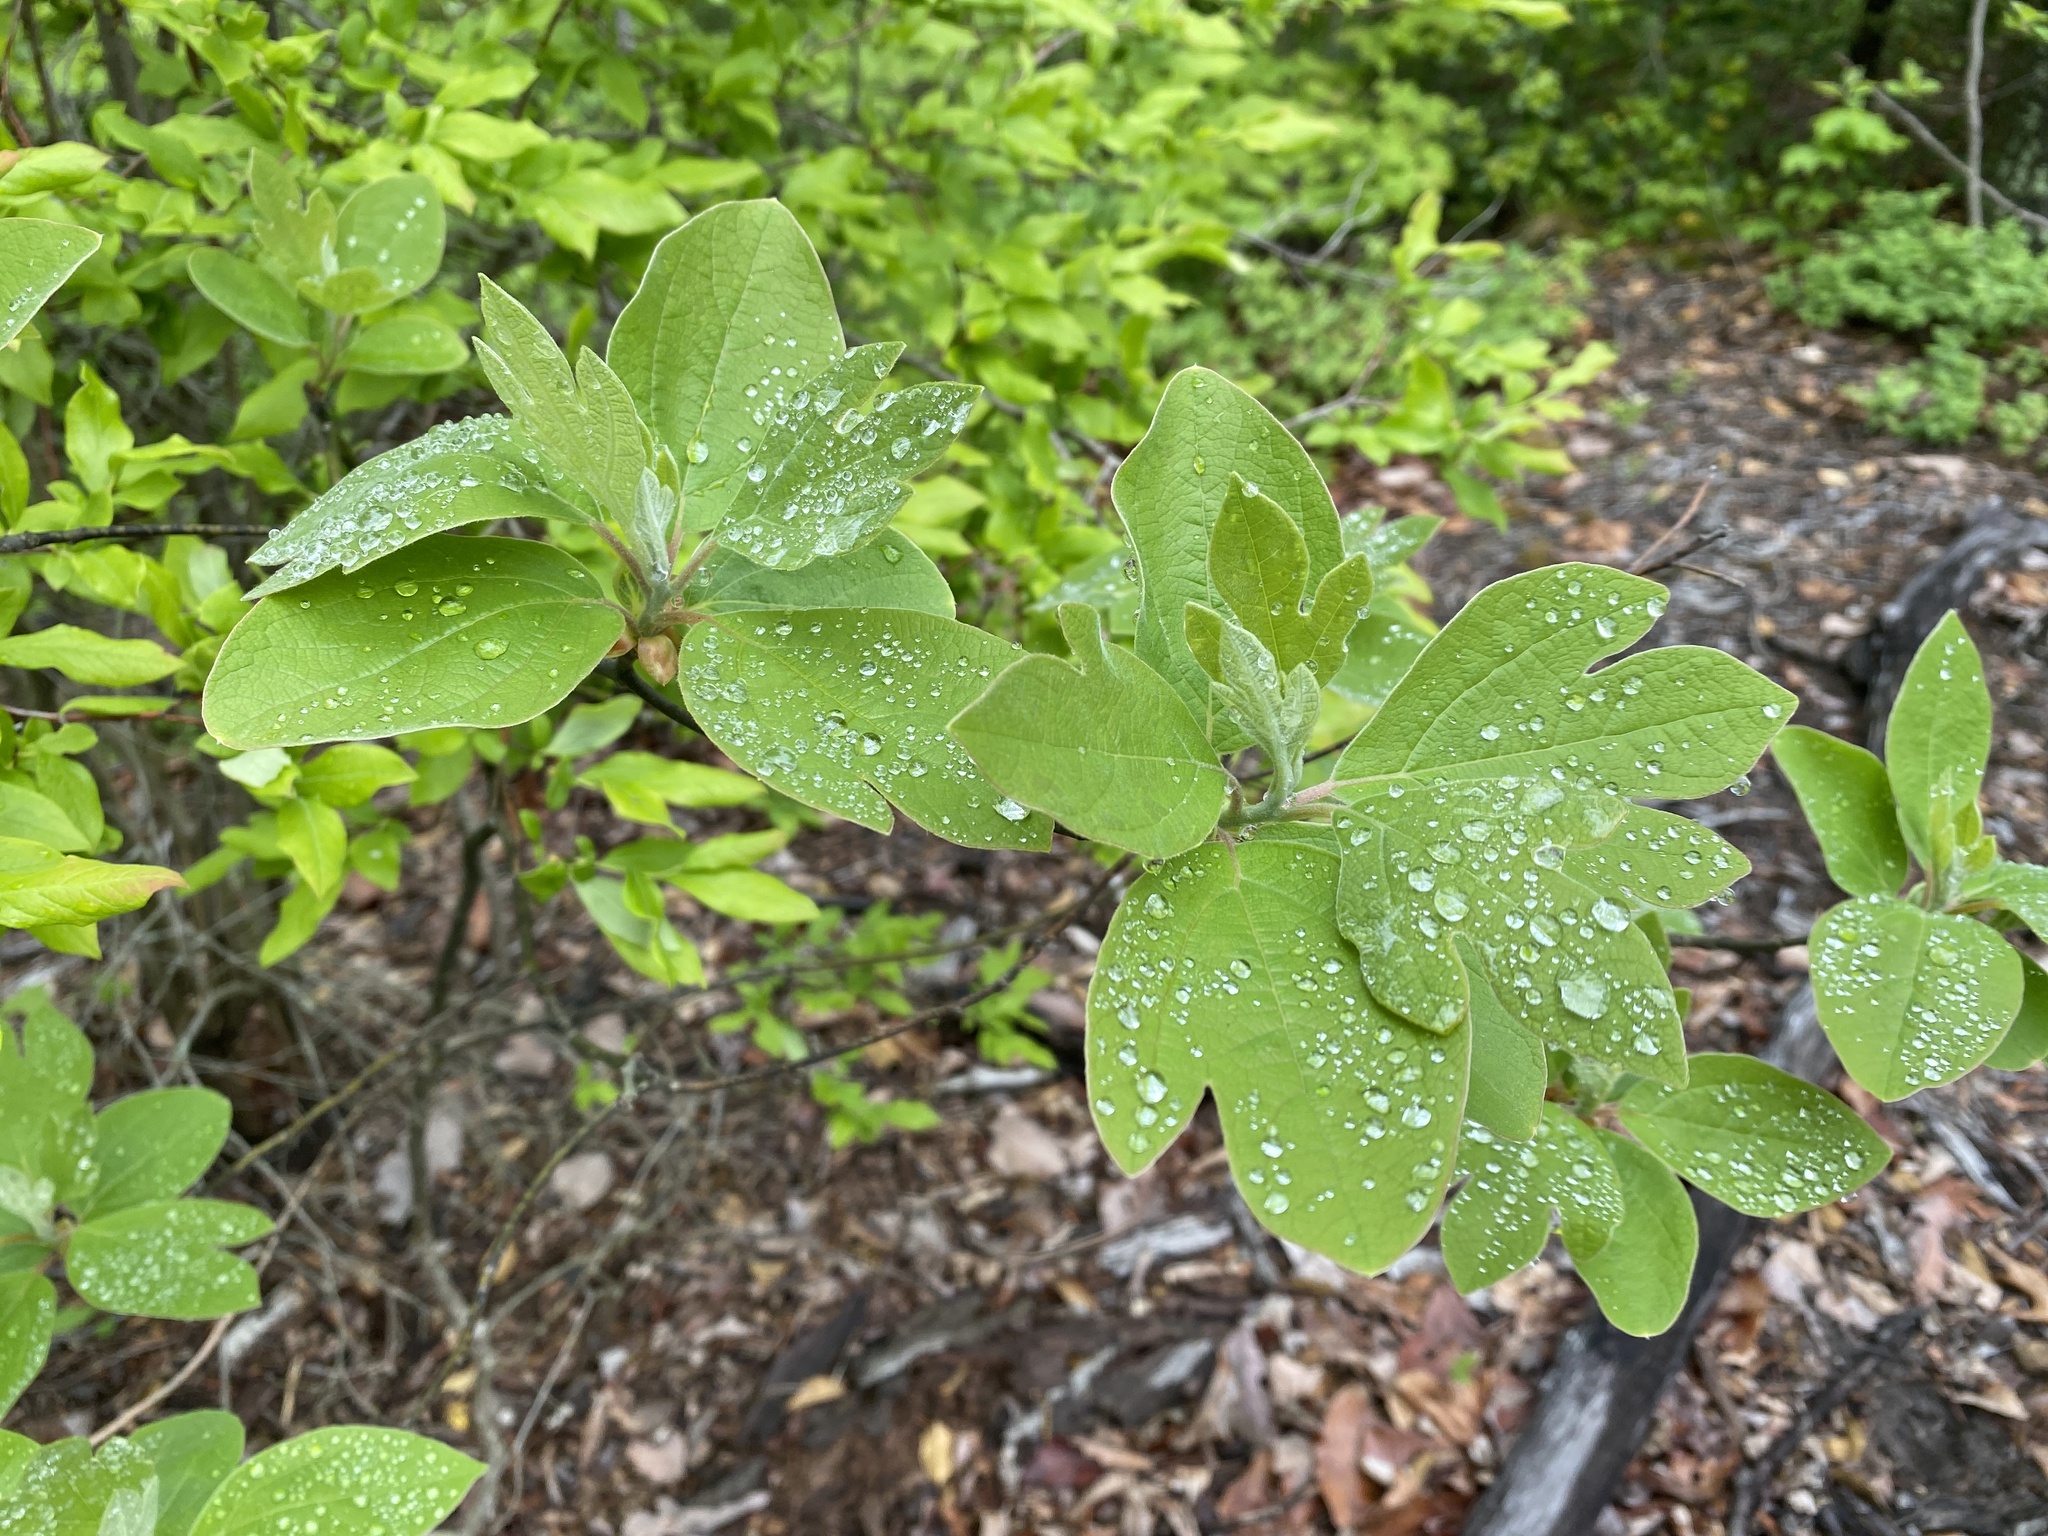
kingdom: Plantae
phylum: Tracheophyta
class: Magnoliopsida
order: Laurales
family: Lauraceae
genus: Sassafras
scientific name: Sassafras albidum
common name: Sassafras
